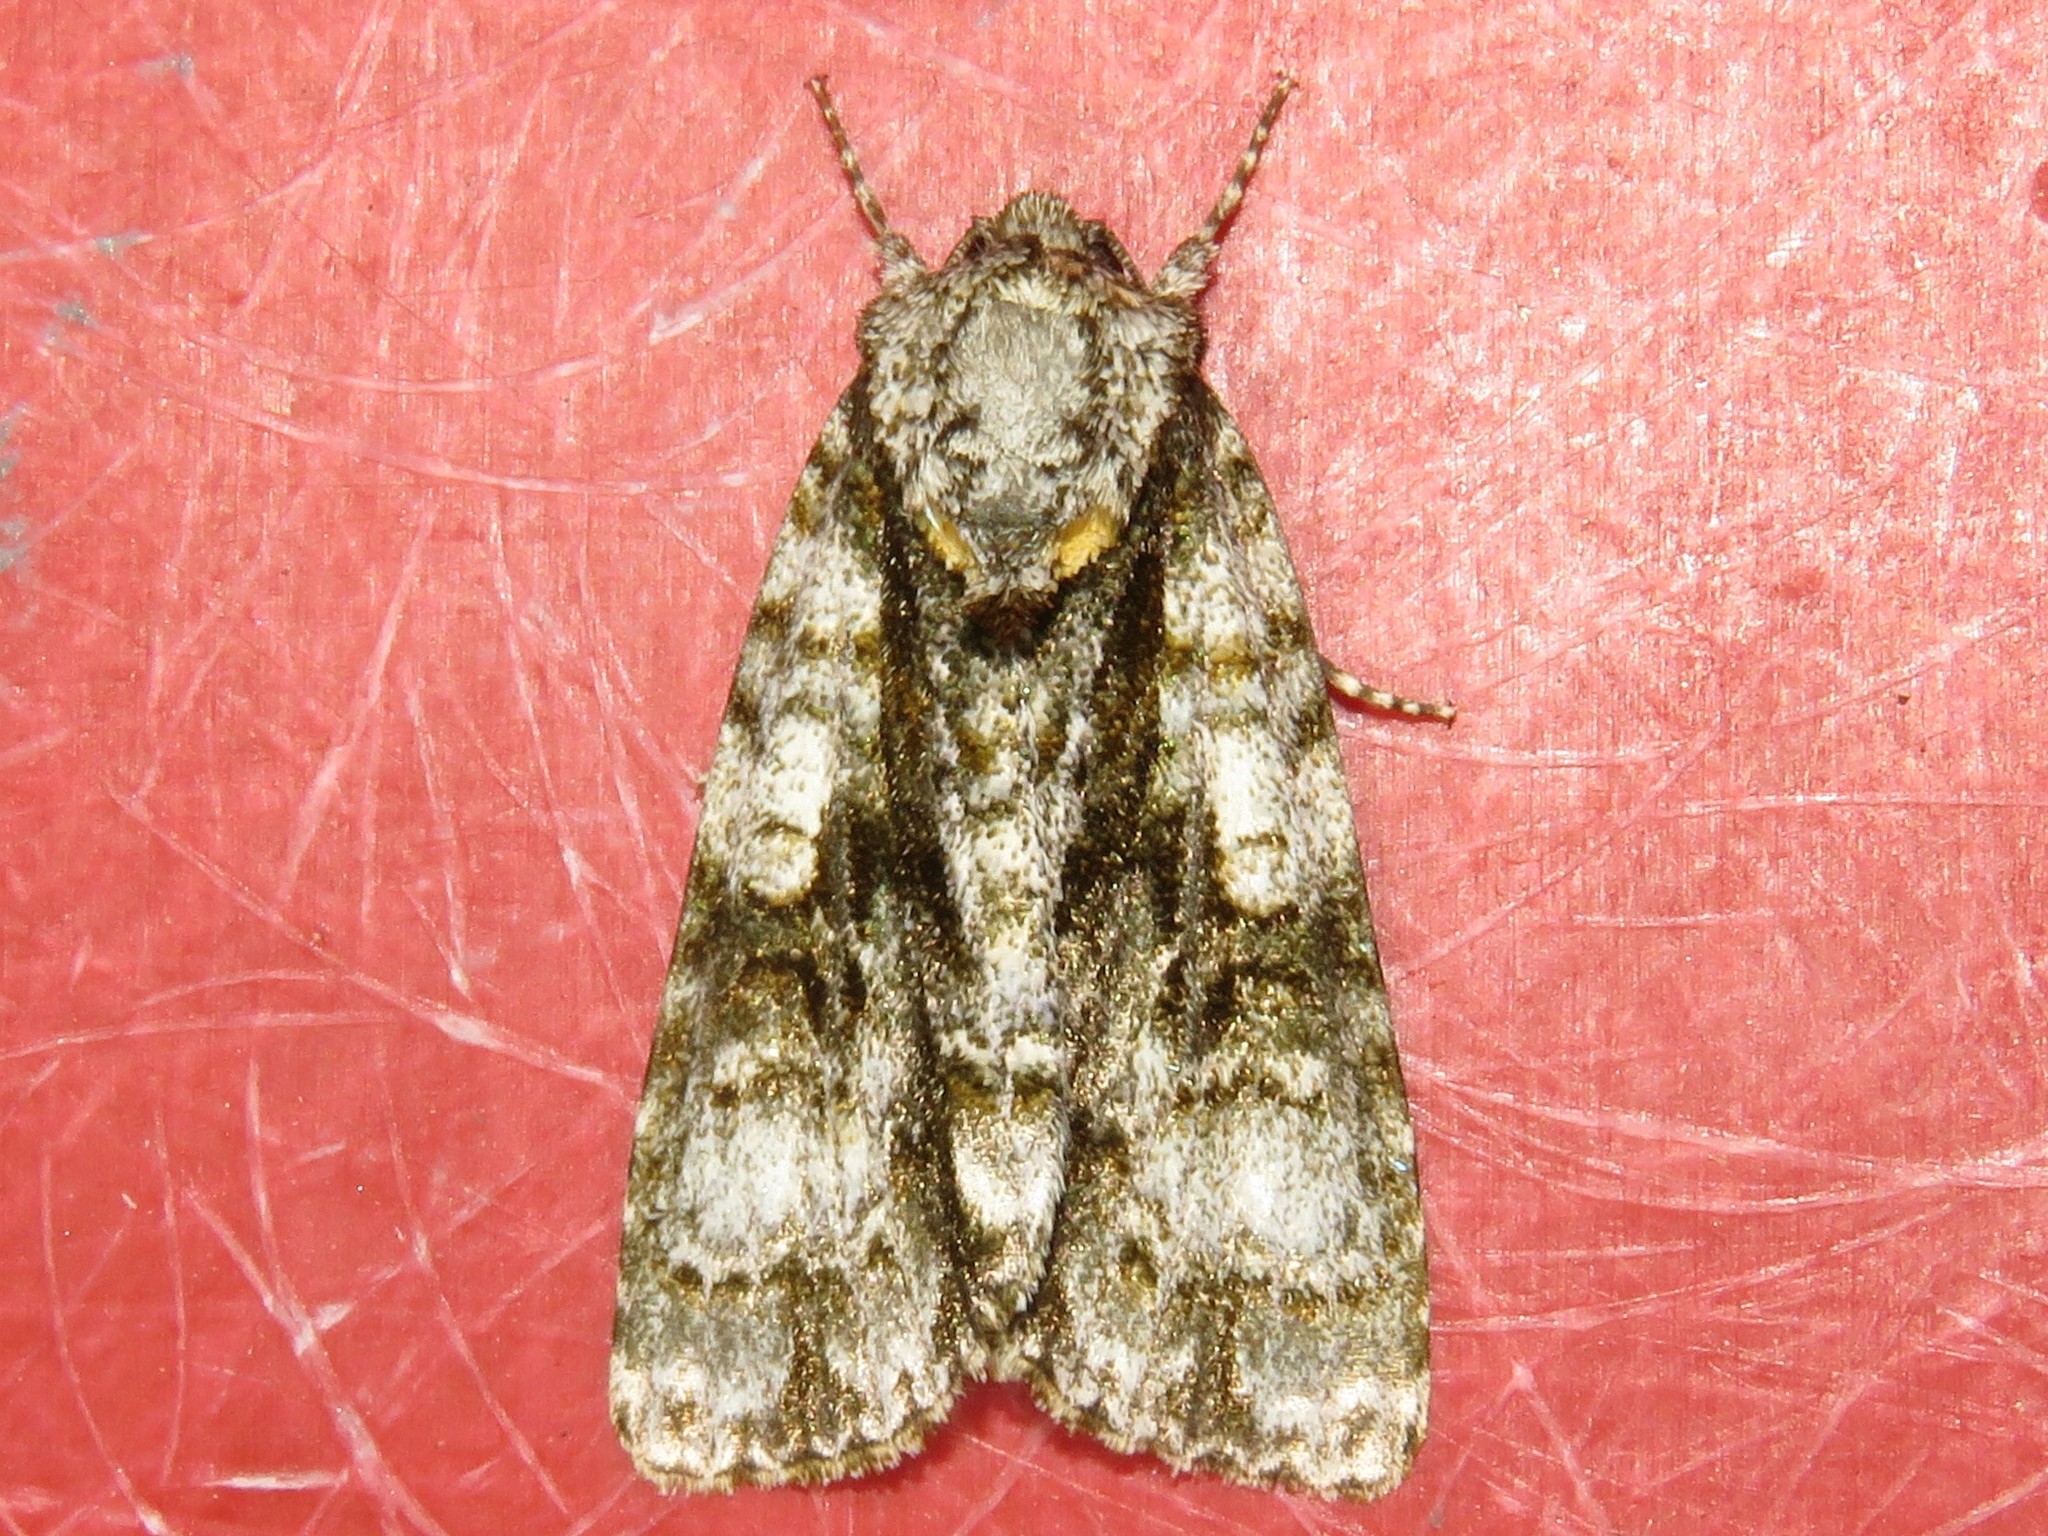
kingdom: Animalia
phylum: Arthropoda
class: Insecta
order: Lepidoptera
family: Noctuidae
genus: Acronicta
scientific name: Acronicta superans
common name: Splendid dagger
